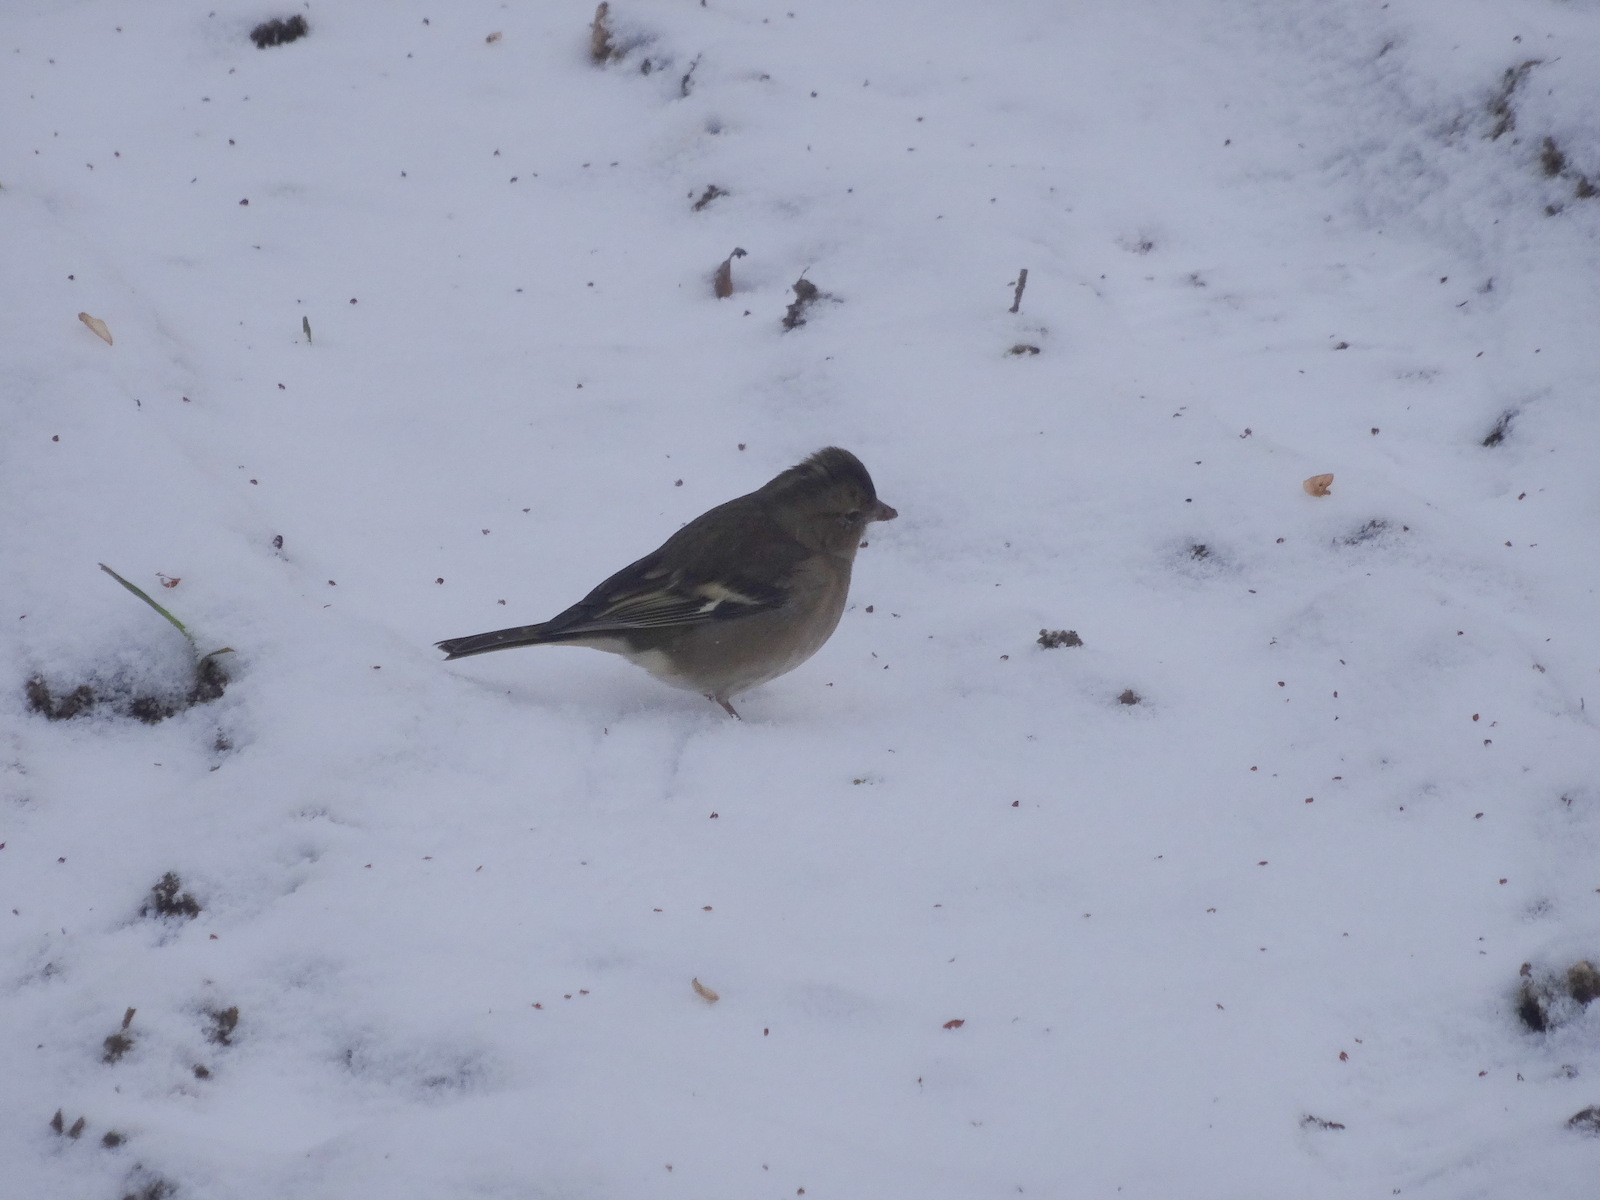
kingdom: Animalia
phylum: Chordata
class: Aves
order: Passeriformes
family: Fringillidae
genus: Fringilla
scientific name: Fringilla coelebs
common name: Common chaffinch
